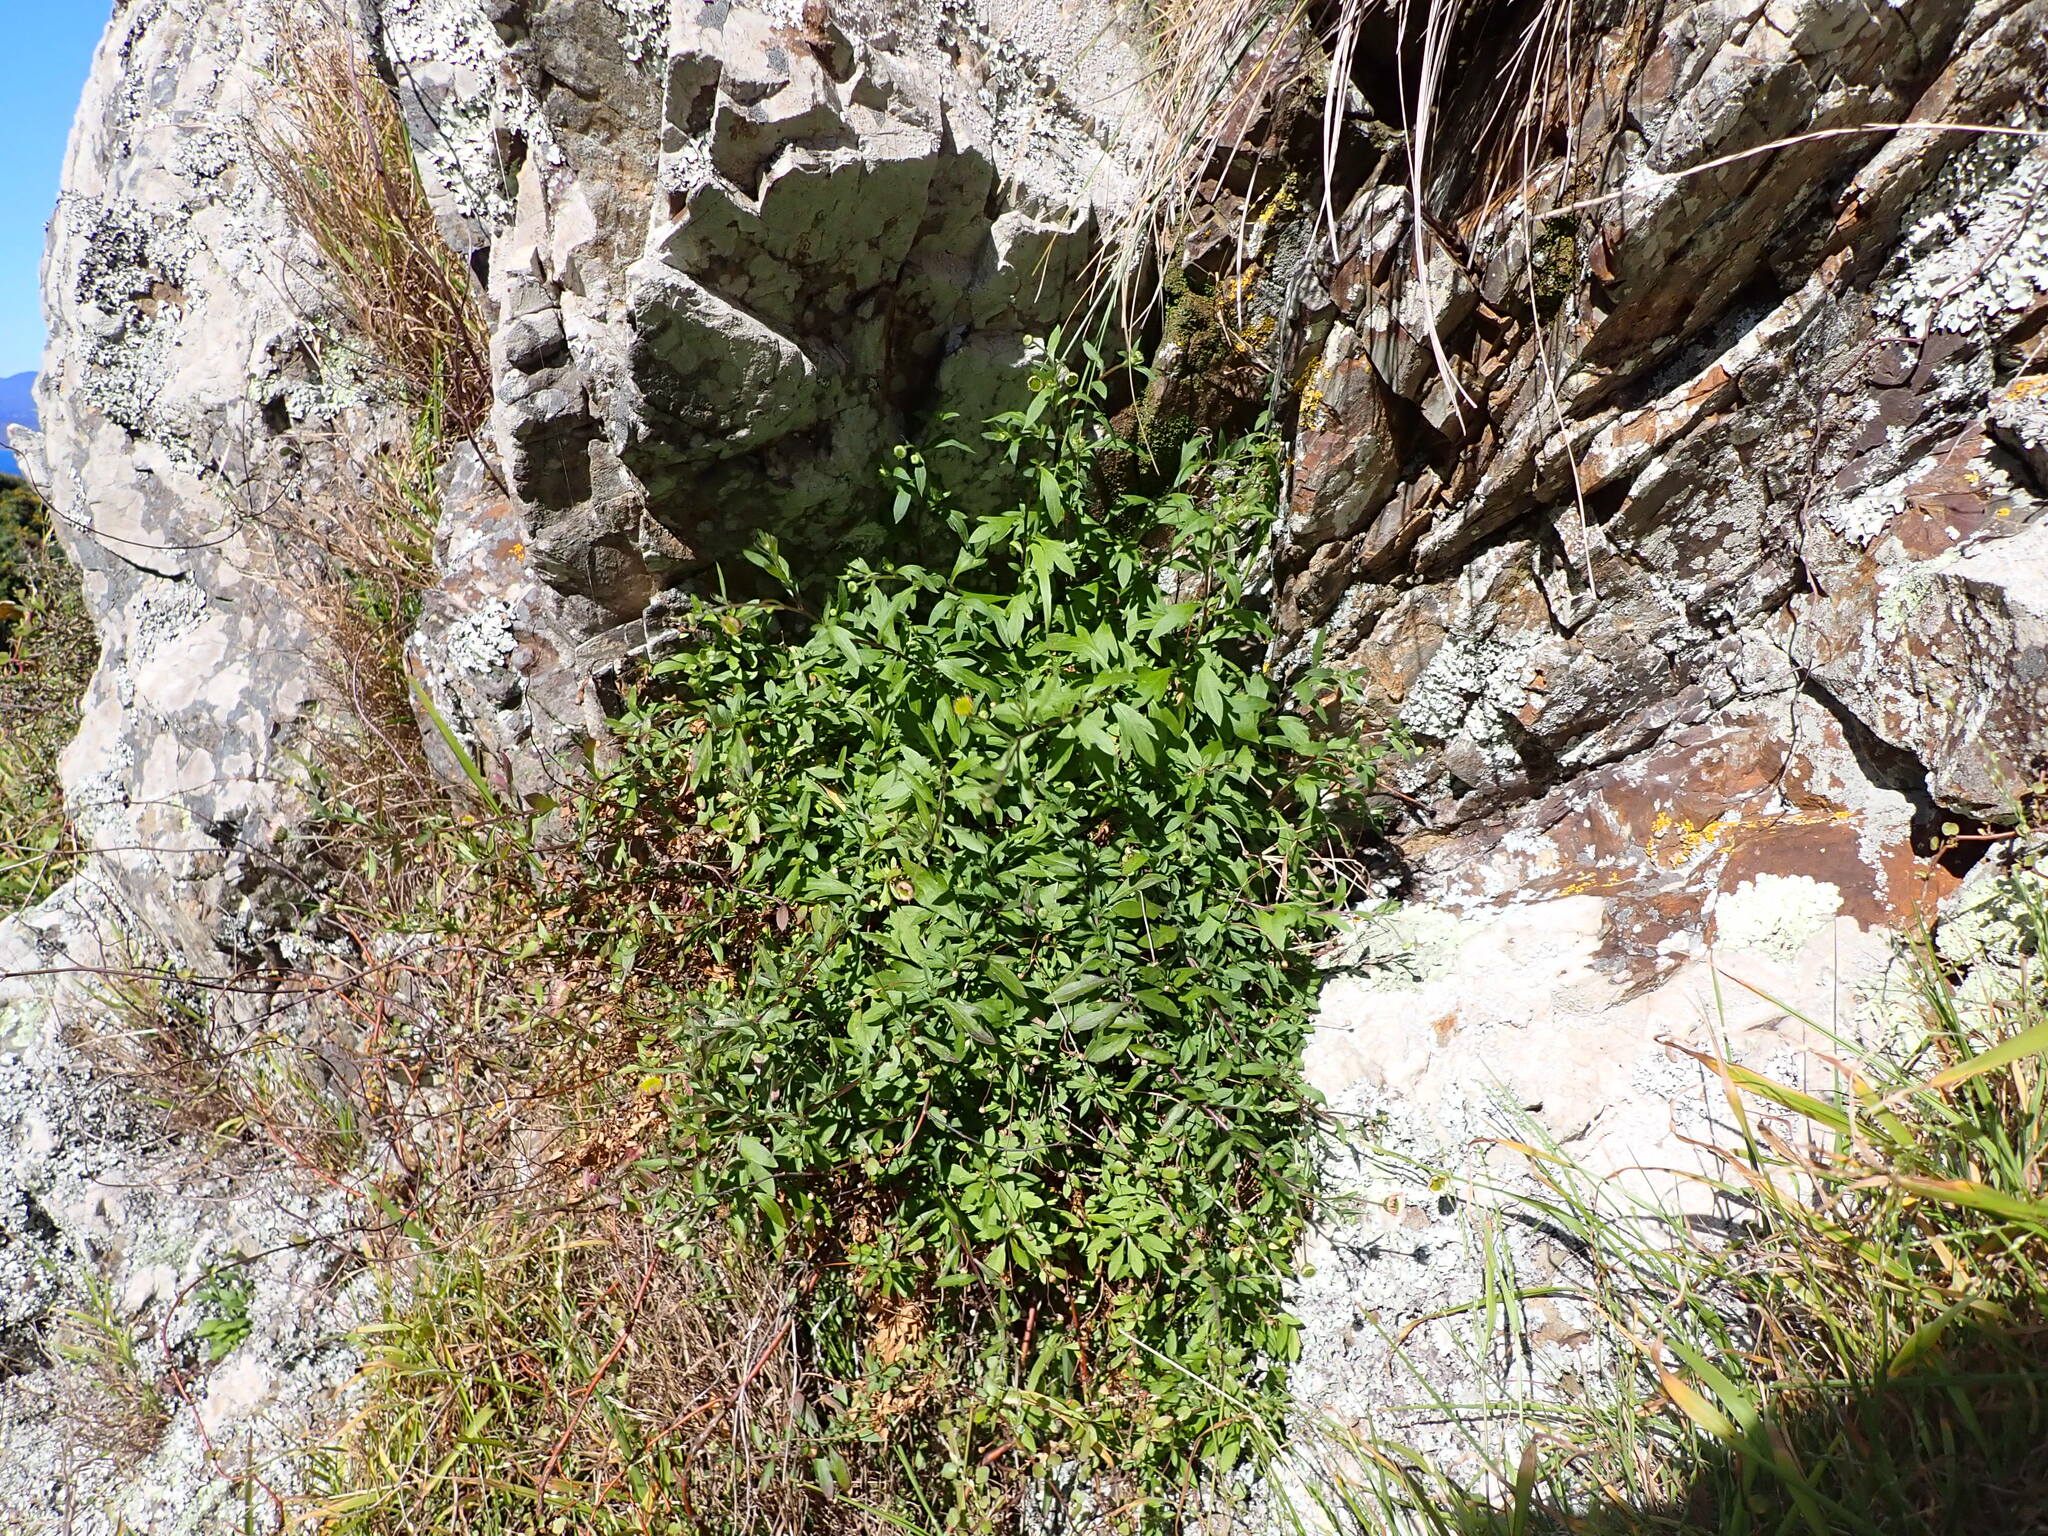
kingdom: Plantae
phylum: Tracheophyta
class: Magnoliopsida
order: Asterales
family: Asteraceae
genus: Erigeron
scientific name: Erigeron karvinskianus
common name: Mexican fleabane
